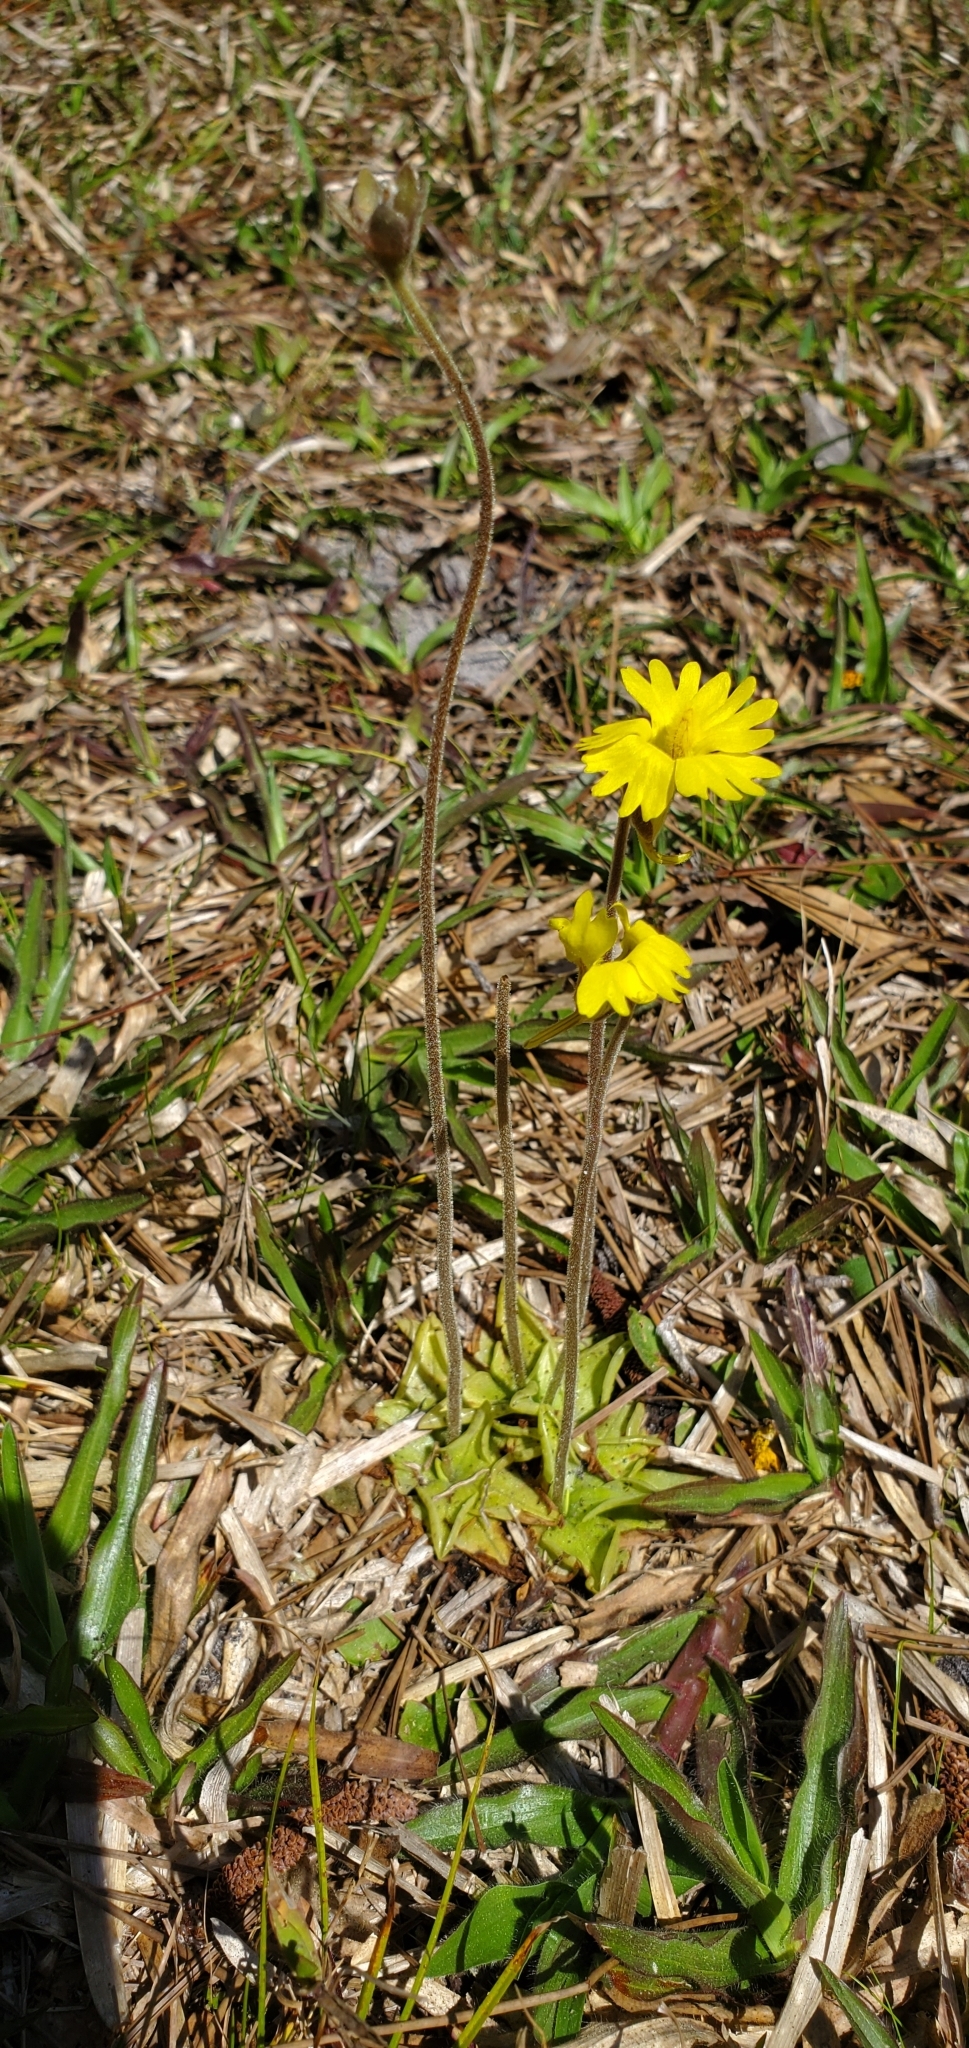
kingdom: Plantae
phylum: Tracheophyta
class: Magnoliopsida
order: Lamiales
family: Lentibulariaceae
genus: Pinguicula
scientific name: Pinguicula lutea
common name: Yellow butterwort
